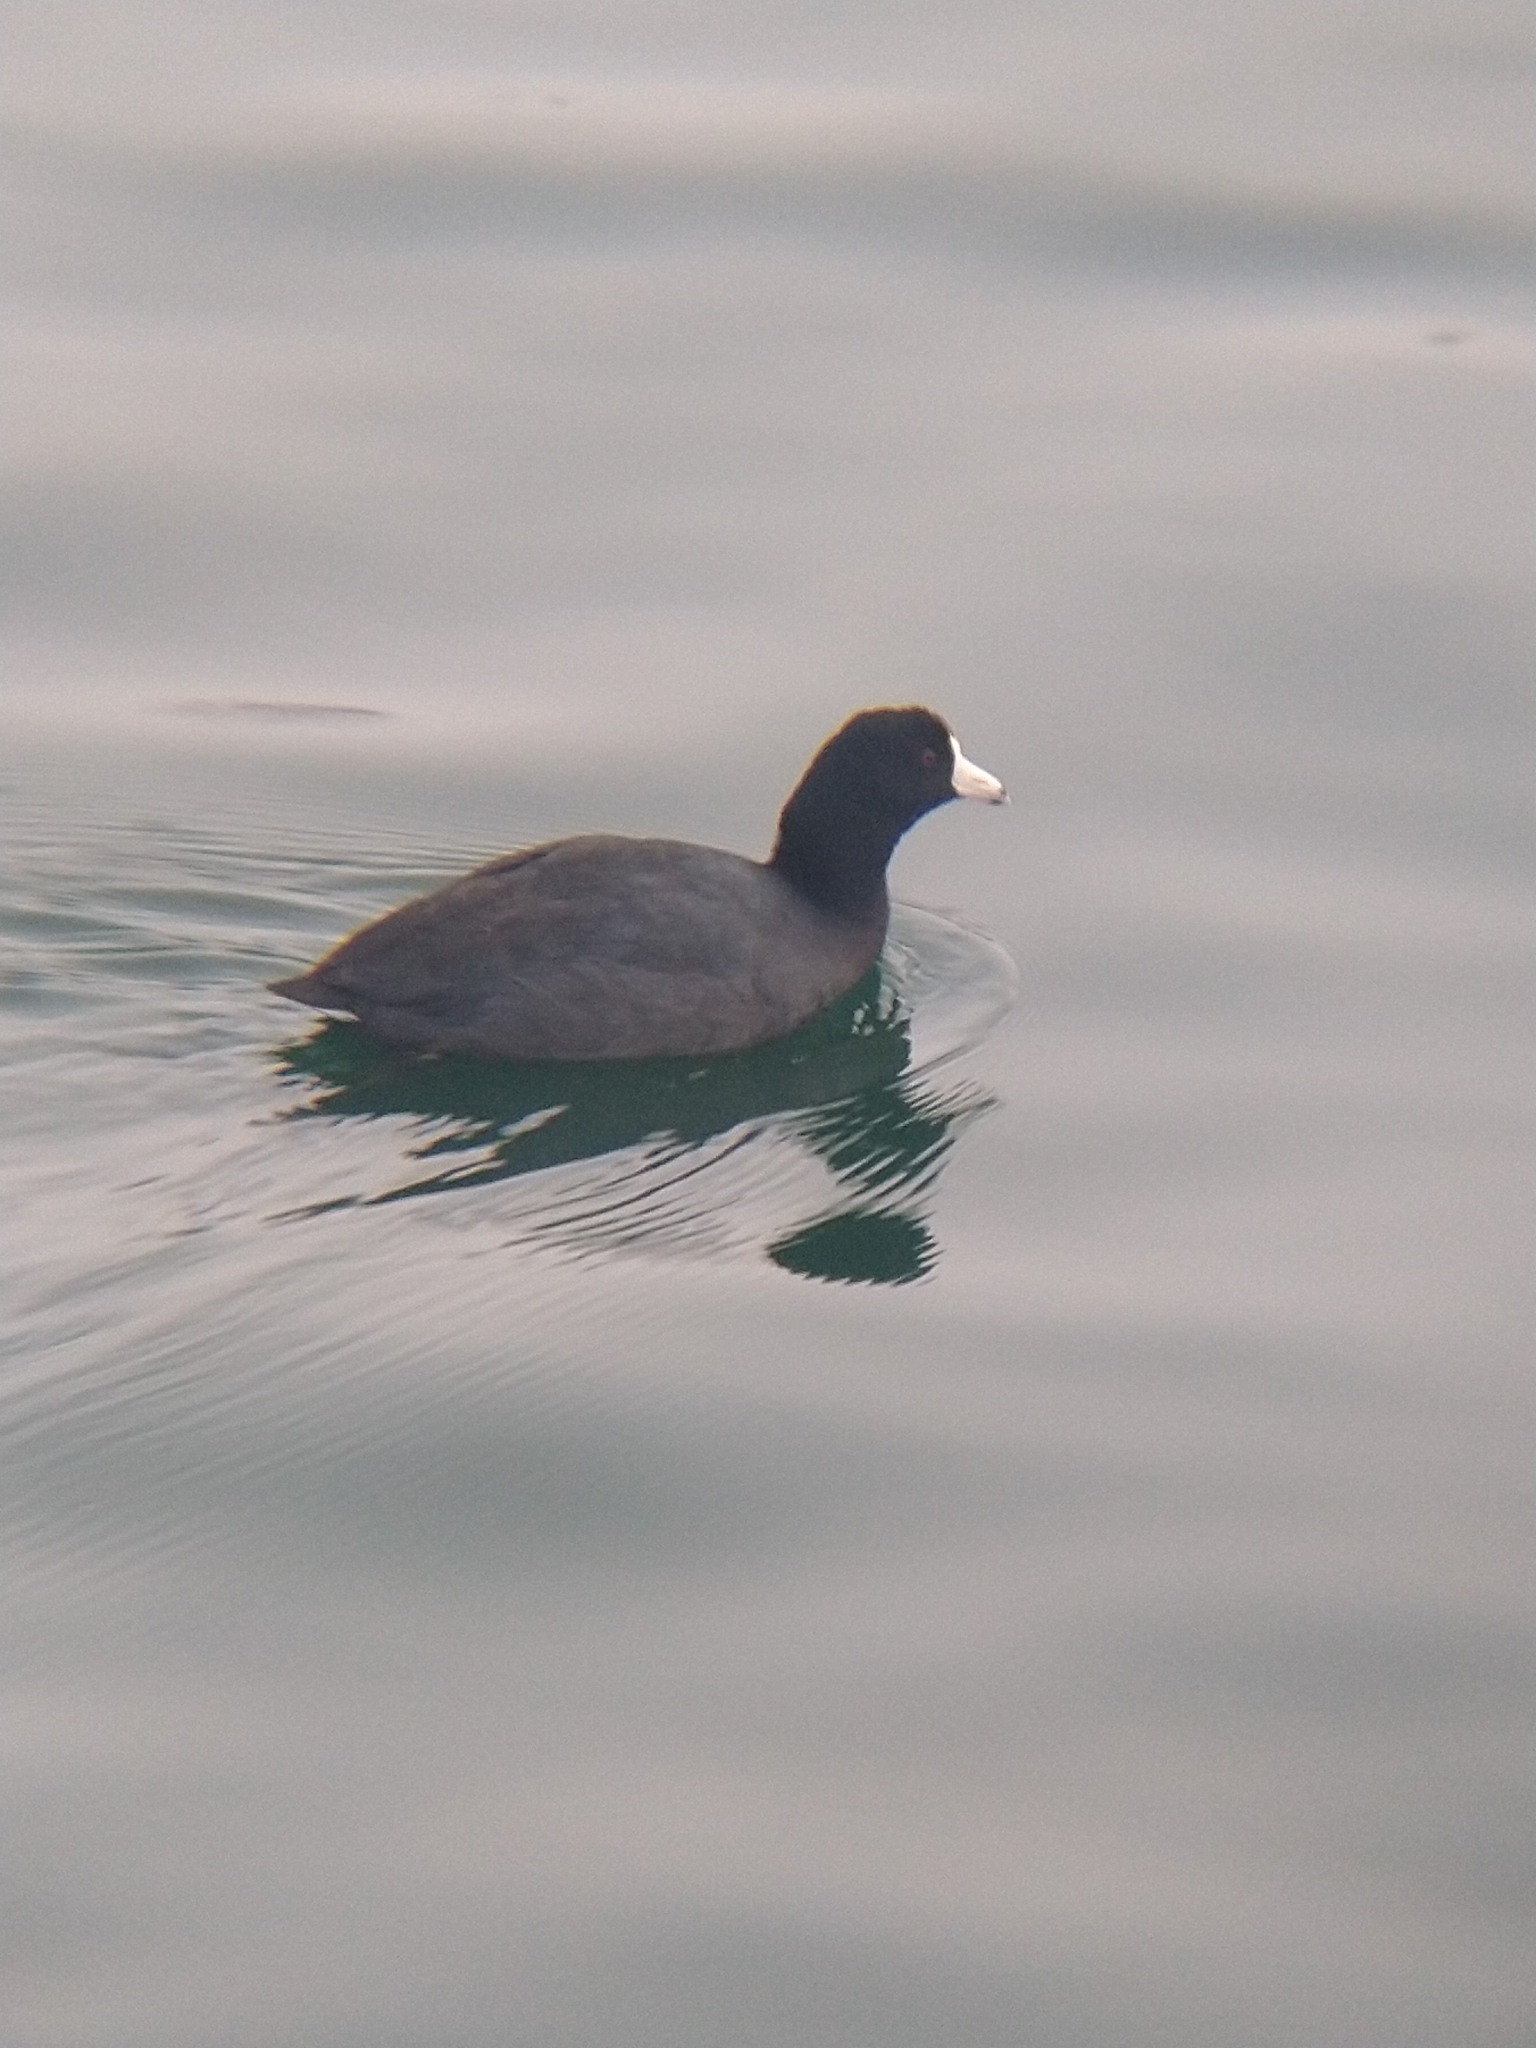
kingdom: Animalia
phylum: Chordata
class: Aves
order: Gruiformes
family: Rallidae
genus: Fulica
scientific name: Fulica americana
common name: American coot
